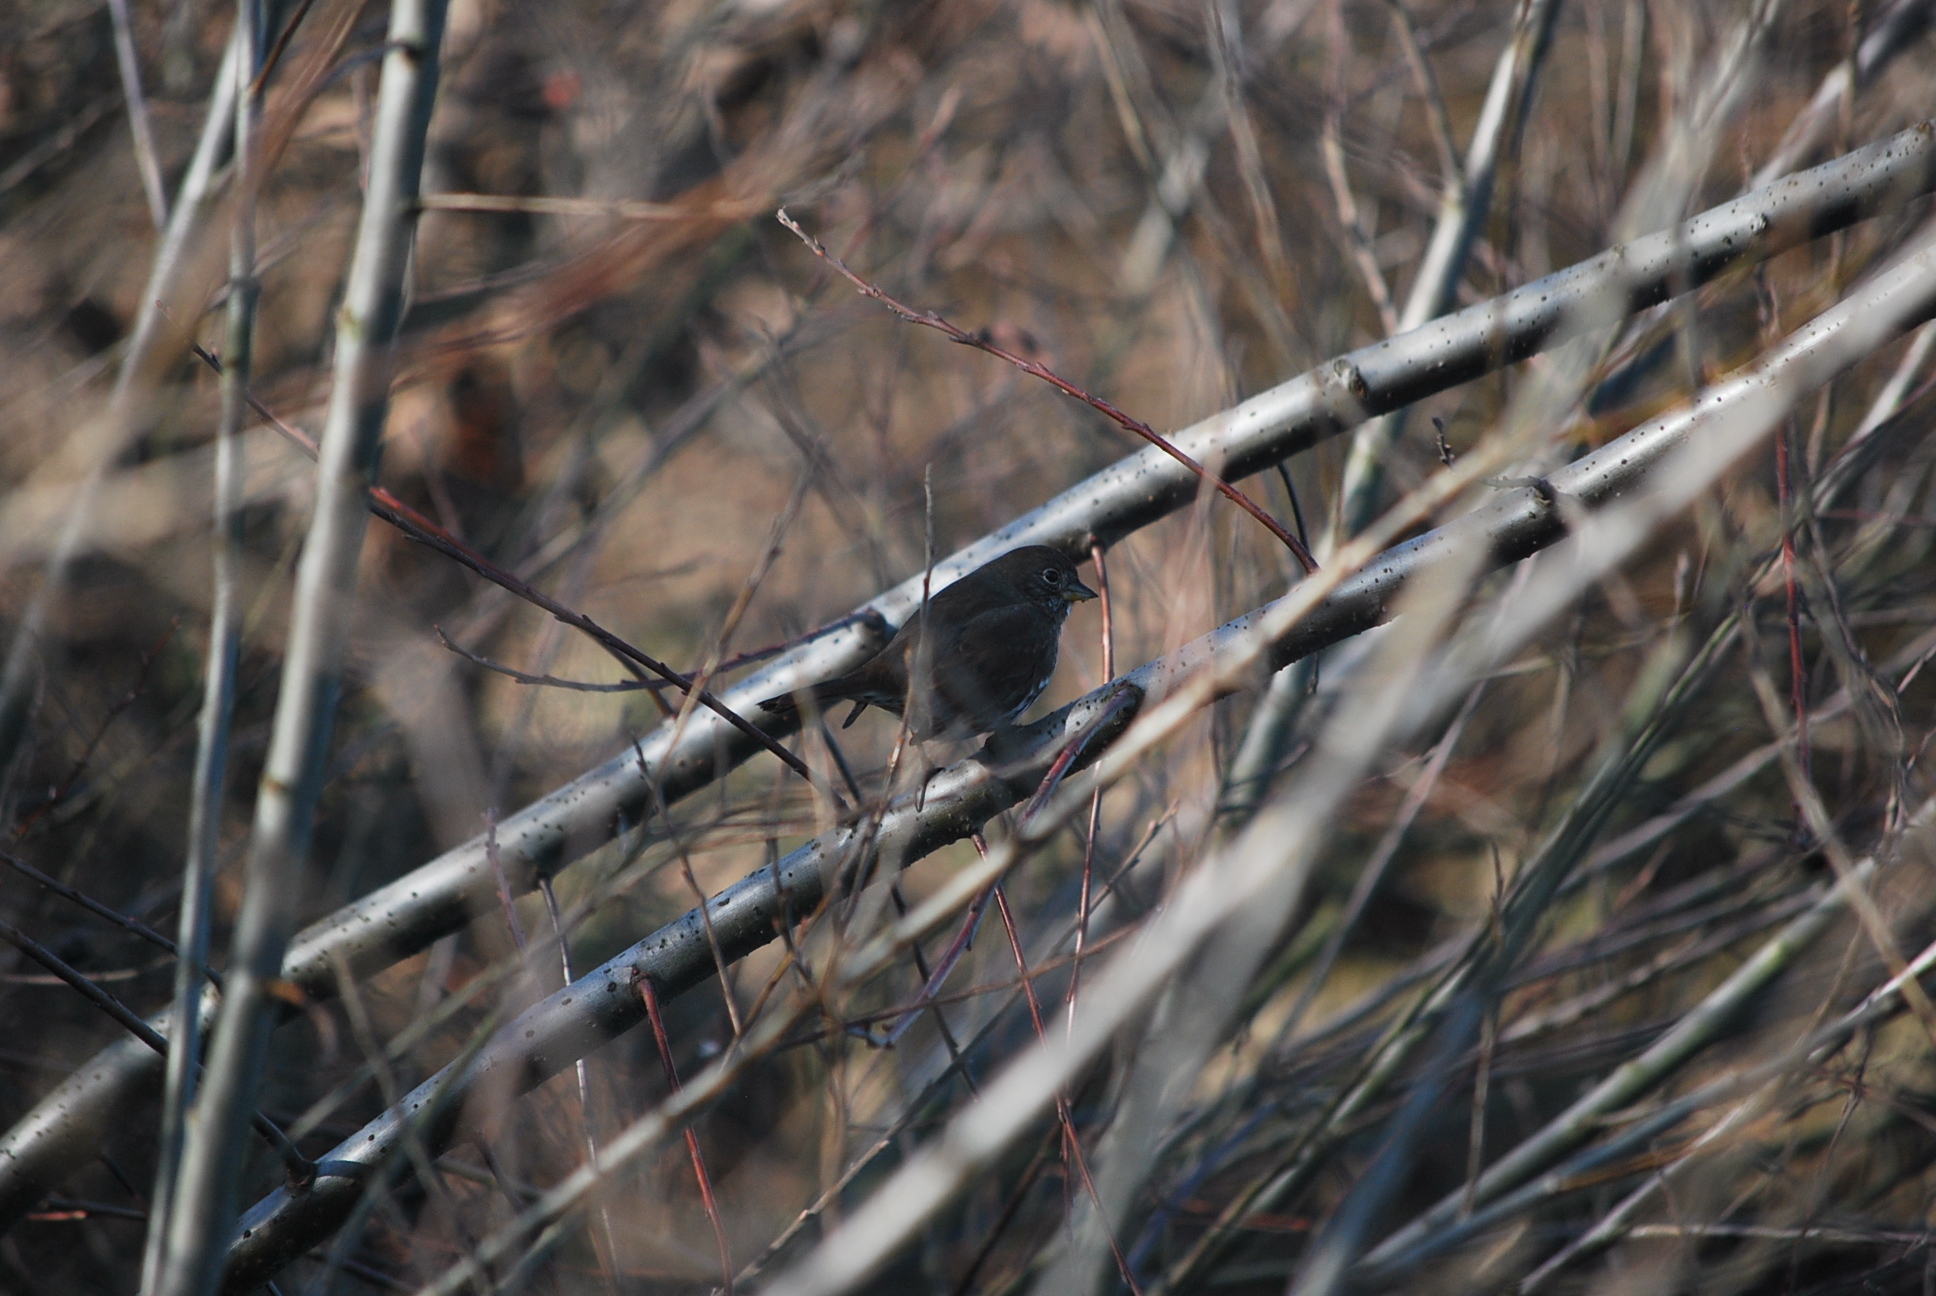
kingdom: Animalia
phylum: Chordata
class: Aves
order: Passeriformes
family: Passerellidae
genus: Passerella
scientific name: Passerella iliaca
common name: Fox sparrow
